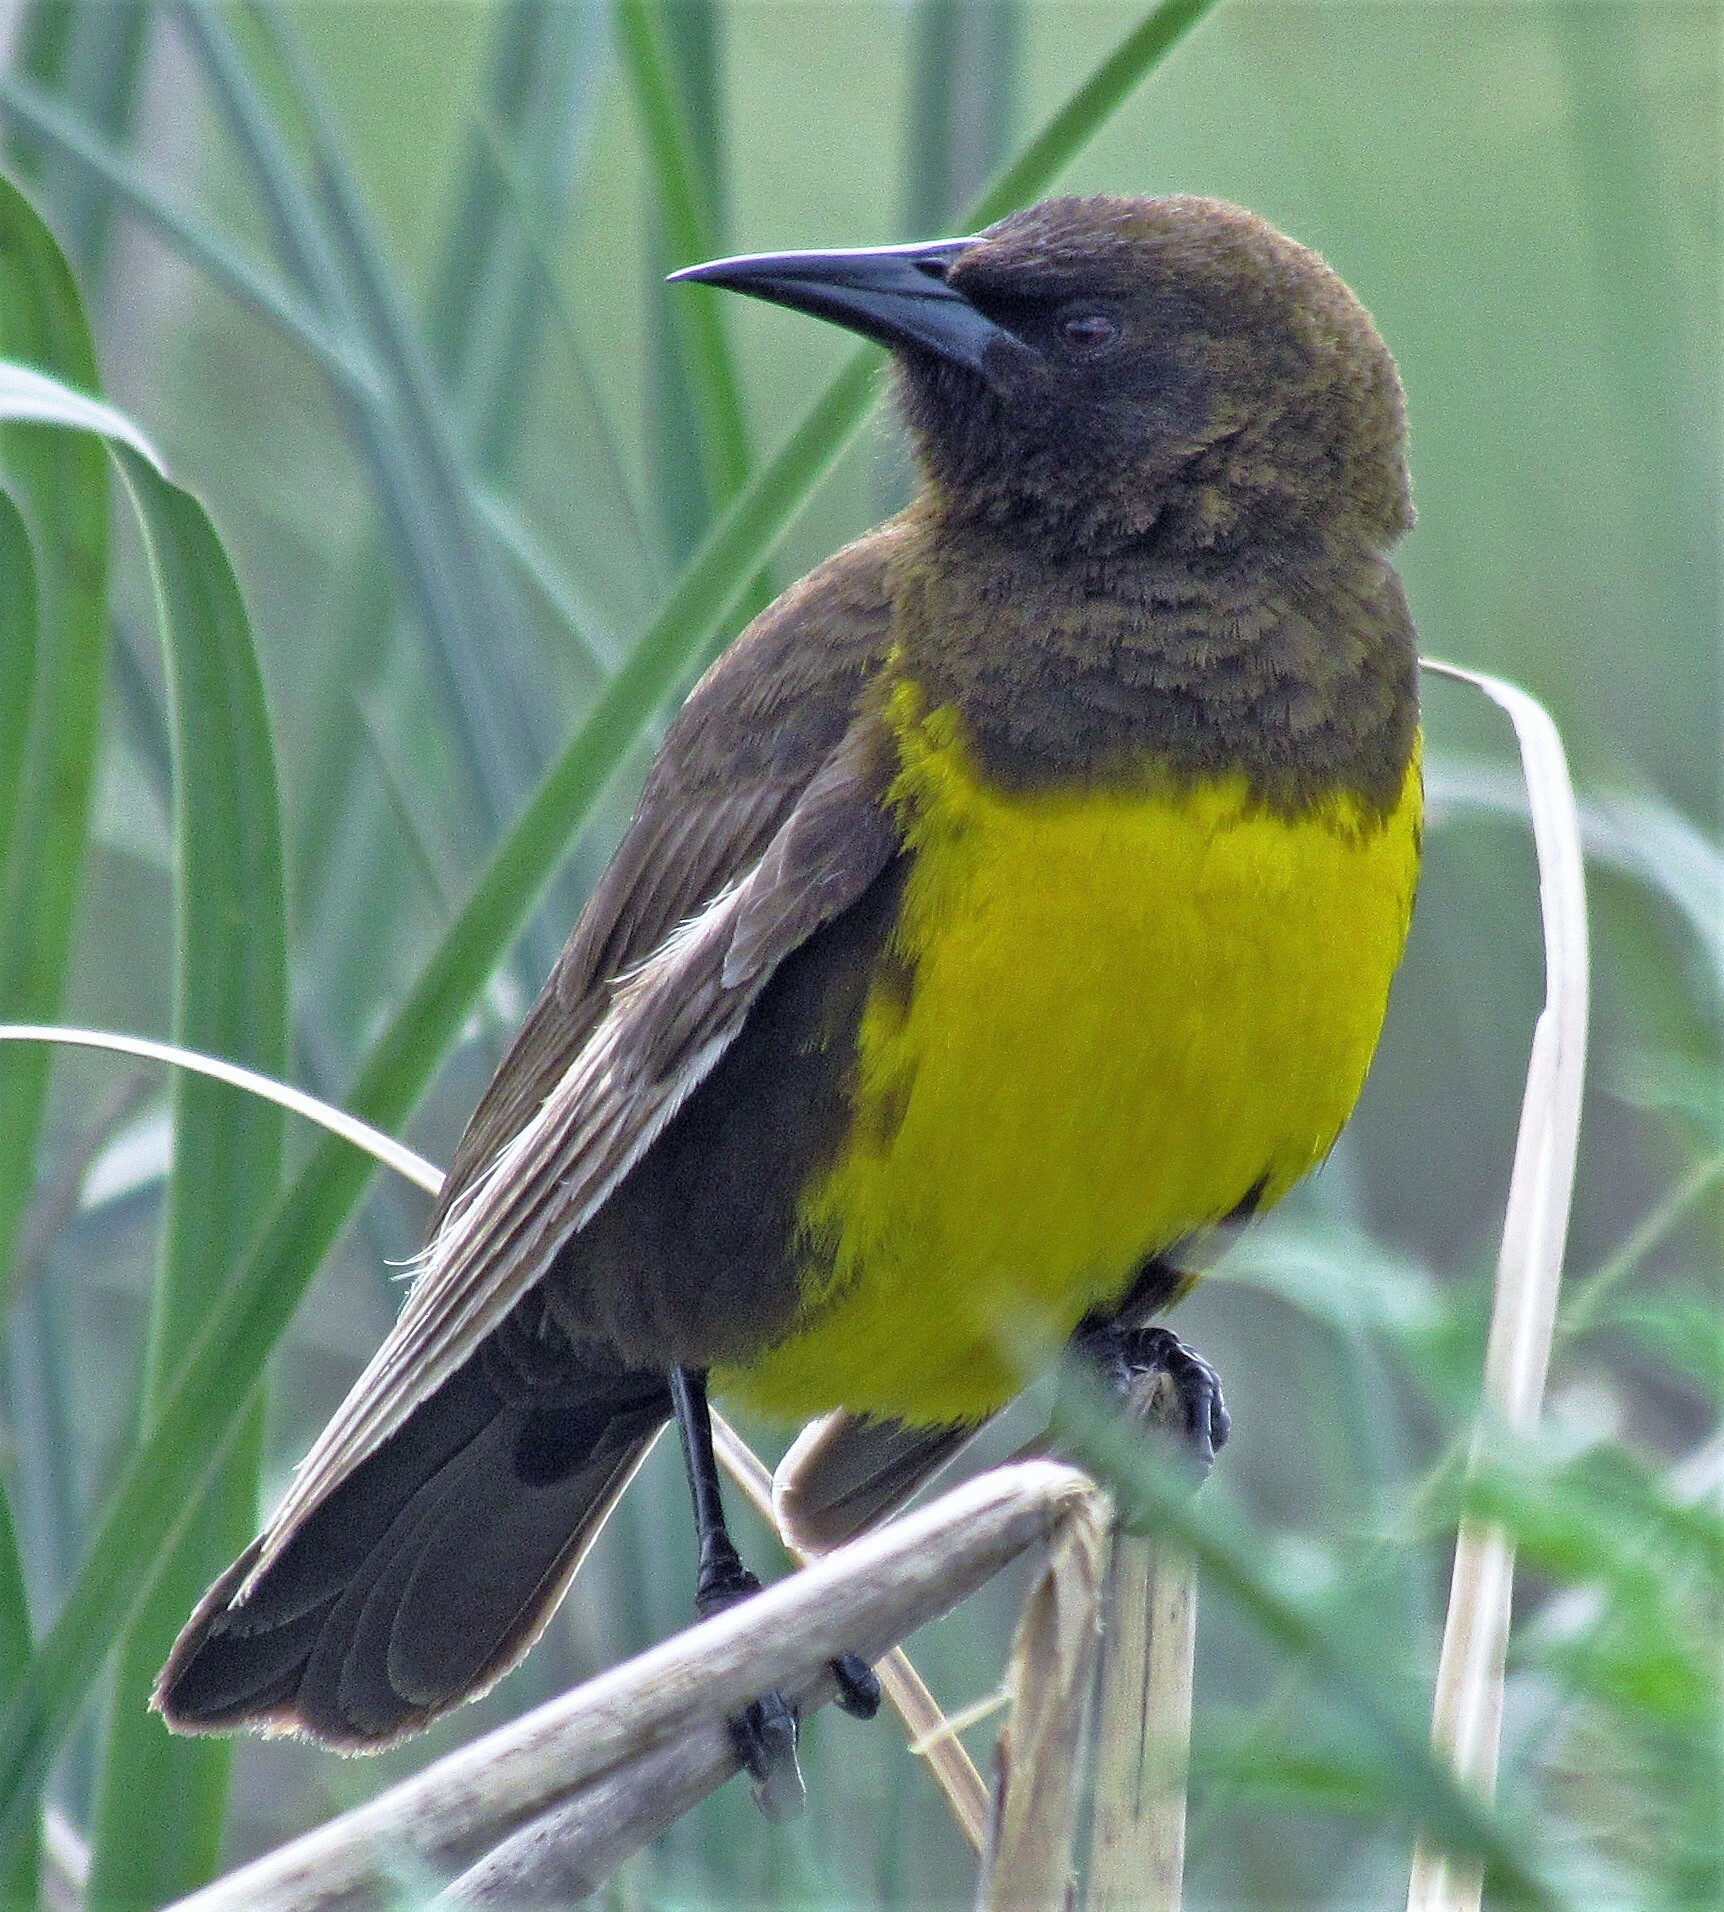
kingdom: Animalia
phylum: Chordata
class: Aves
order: Passeriformes
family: Icteridae
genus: Pseudoleistes
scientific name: Pseudoleistes virescens
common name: Brown-and-yellow marshbird
